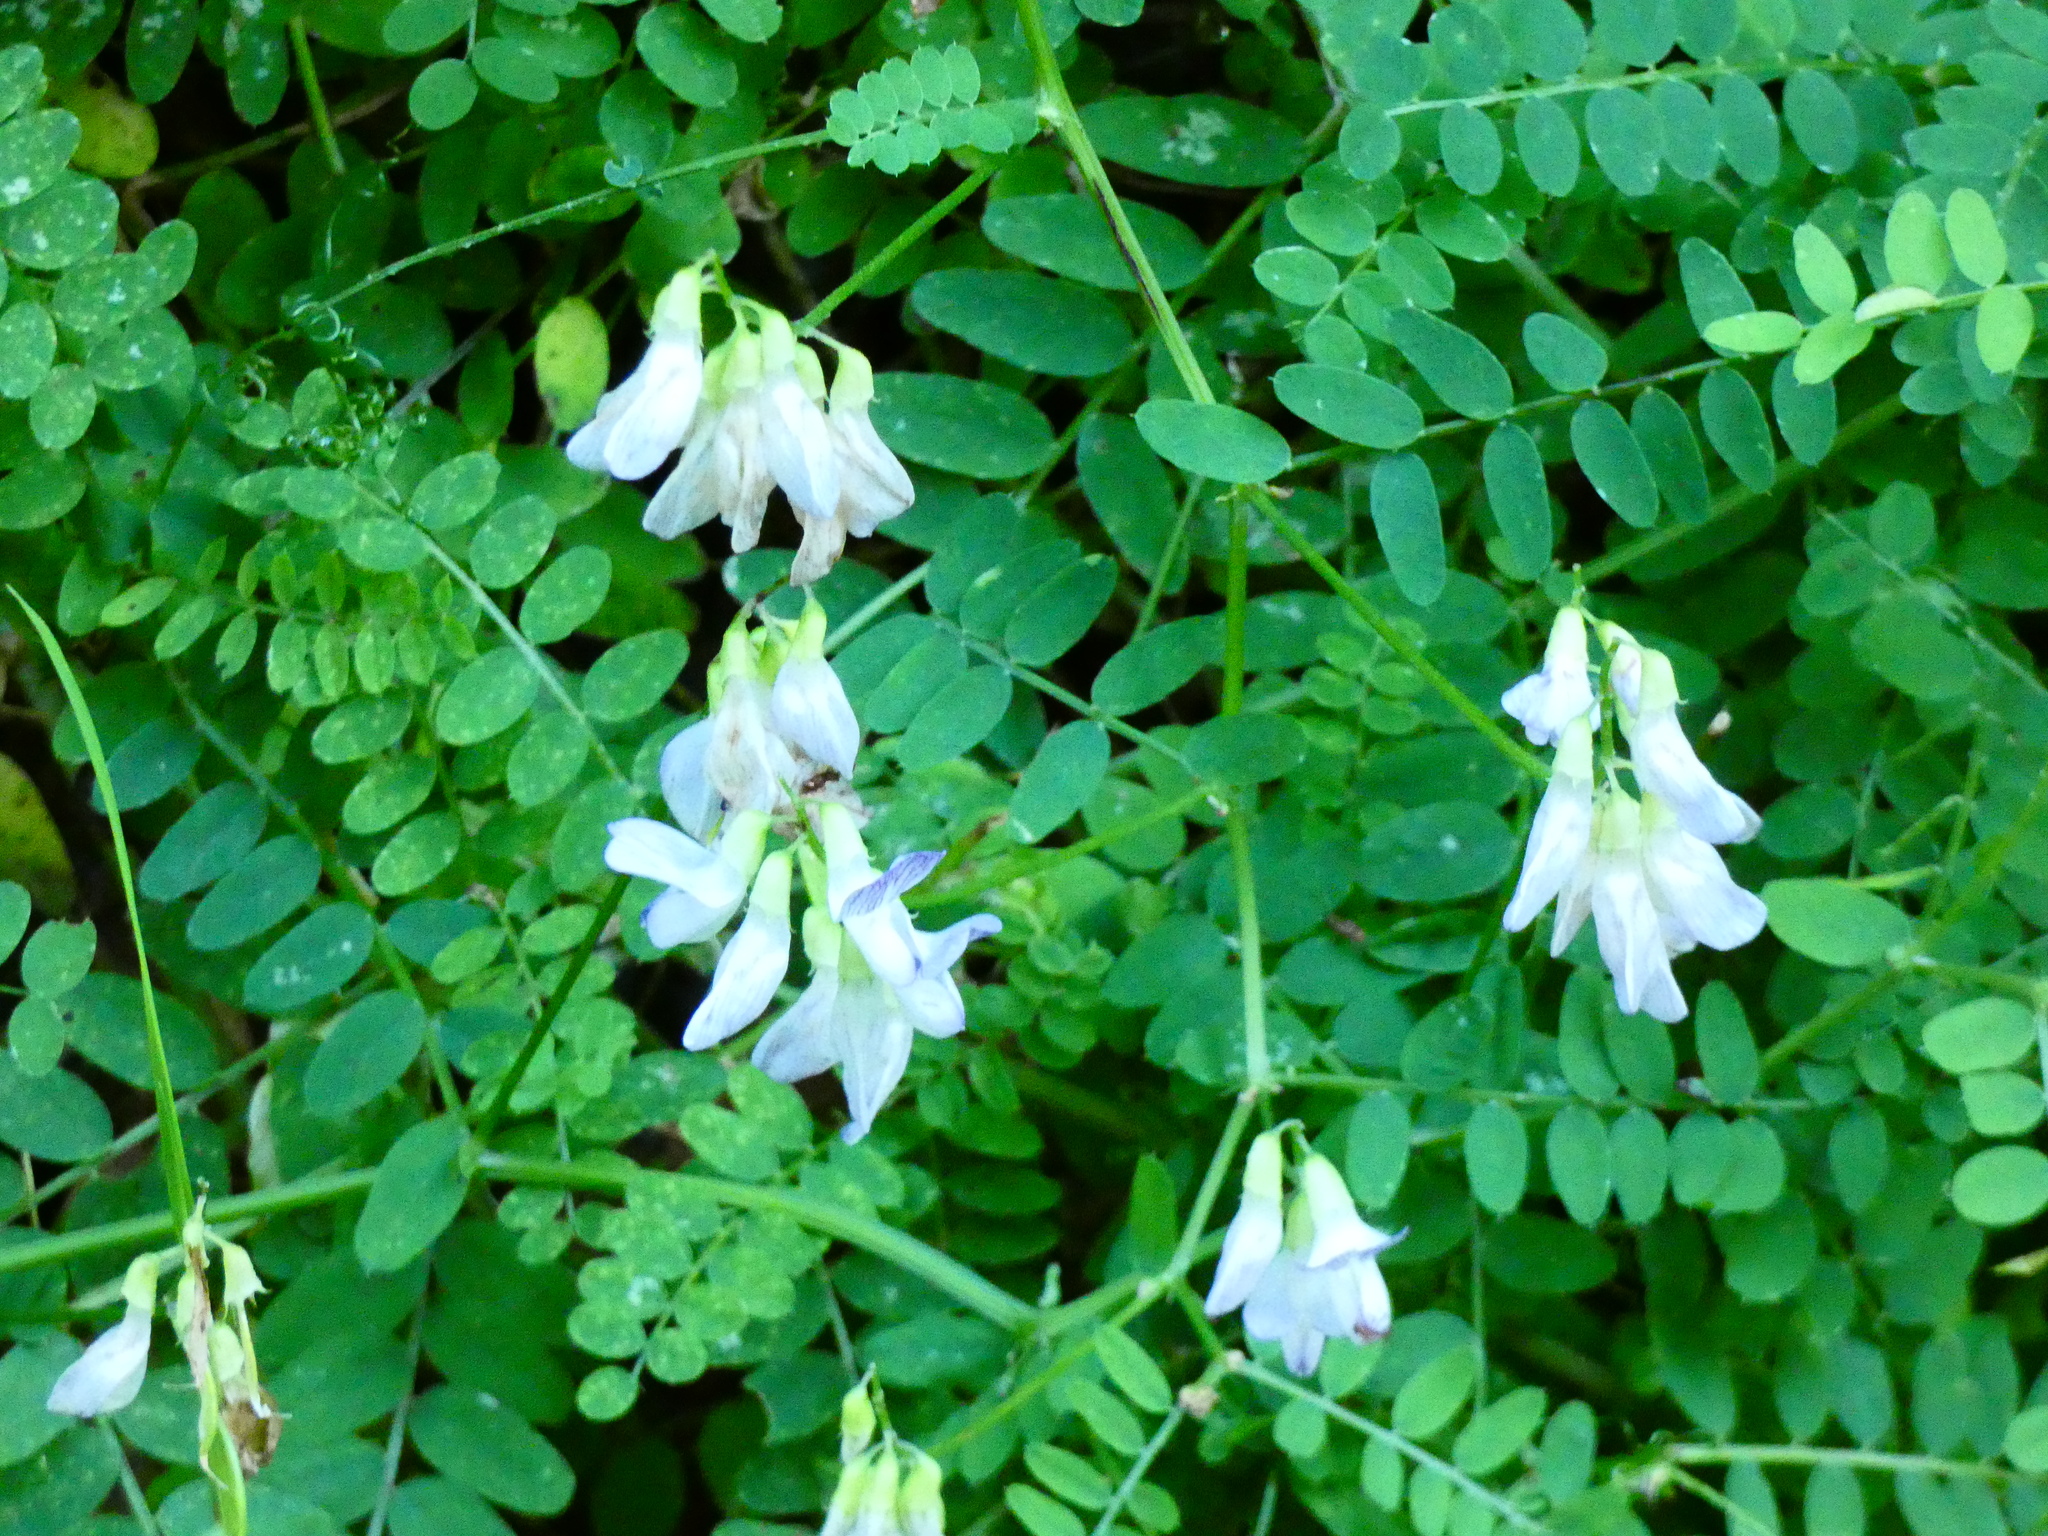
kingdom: Plantae
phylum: Tracheophyta
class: Magnoliopsida
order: Fabales
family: Fabaceae
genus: Vicia
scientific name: Vicia sylvatica
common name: Wood vetch
